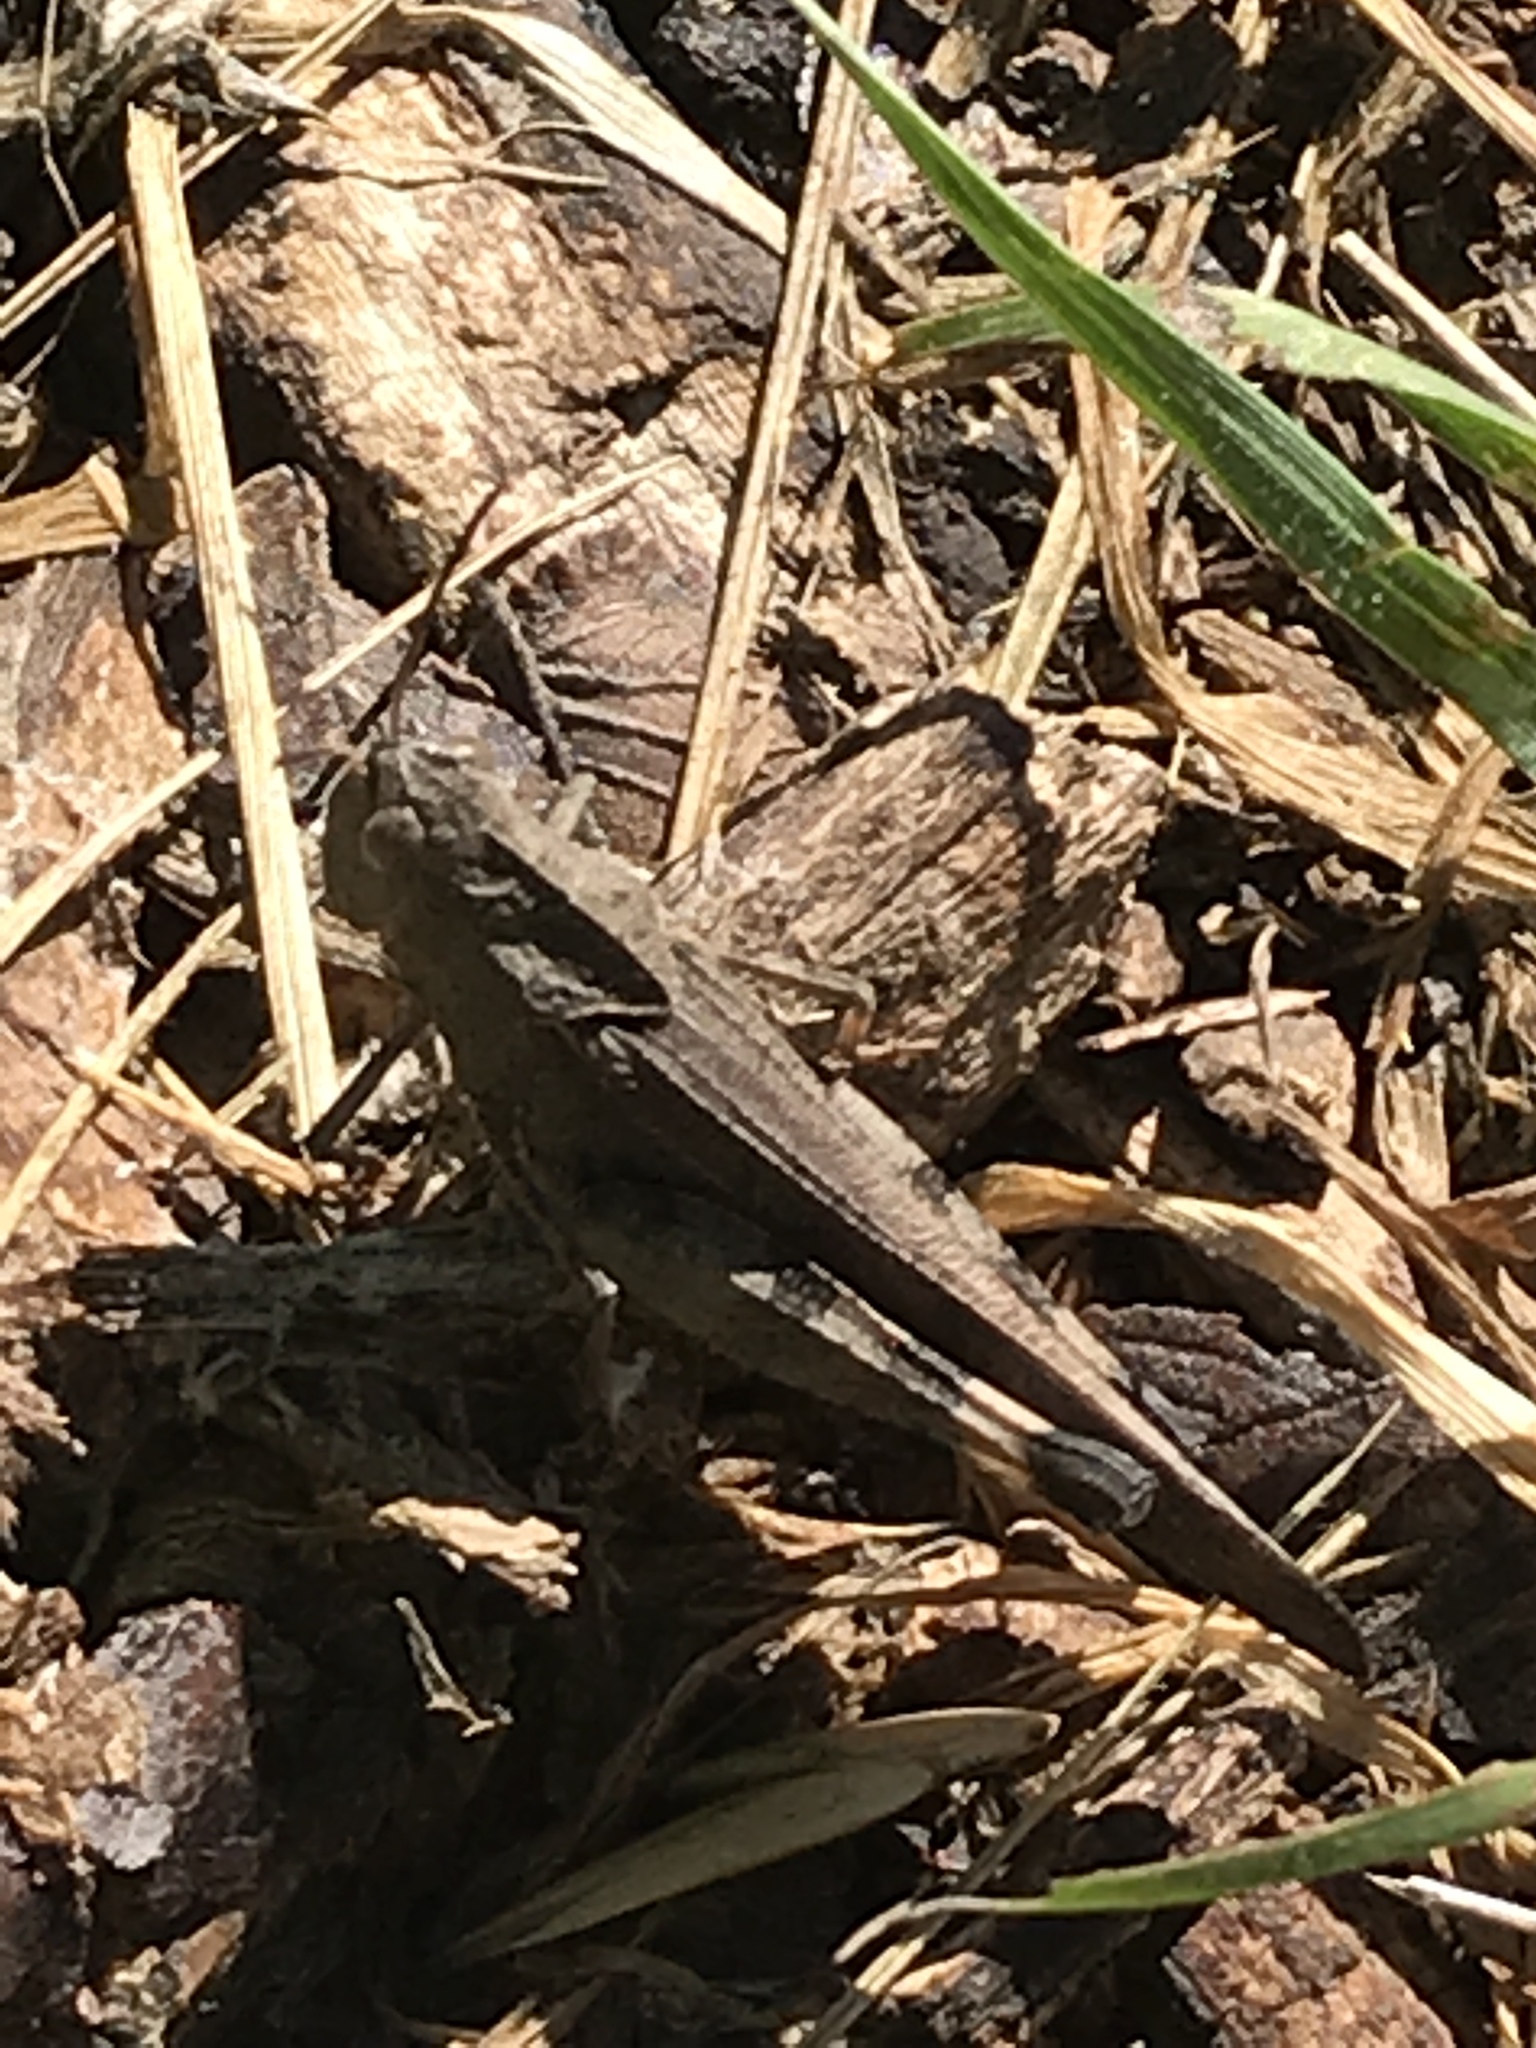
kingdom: Animalia
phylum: Arthropoda
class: Insecta
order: Orthoptera
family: Acrididae
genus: Chortophaga
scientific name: Chortophaga viridifasciata
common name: Green-striped grasshopper
